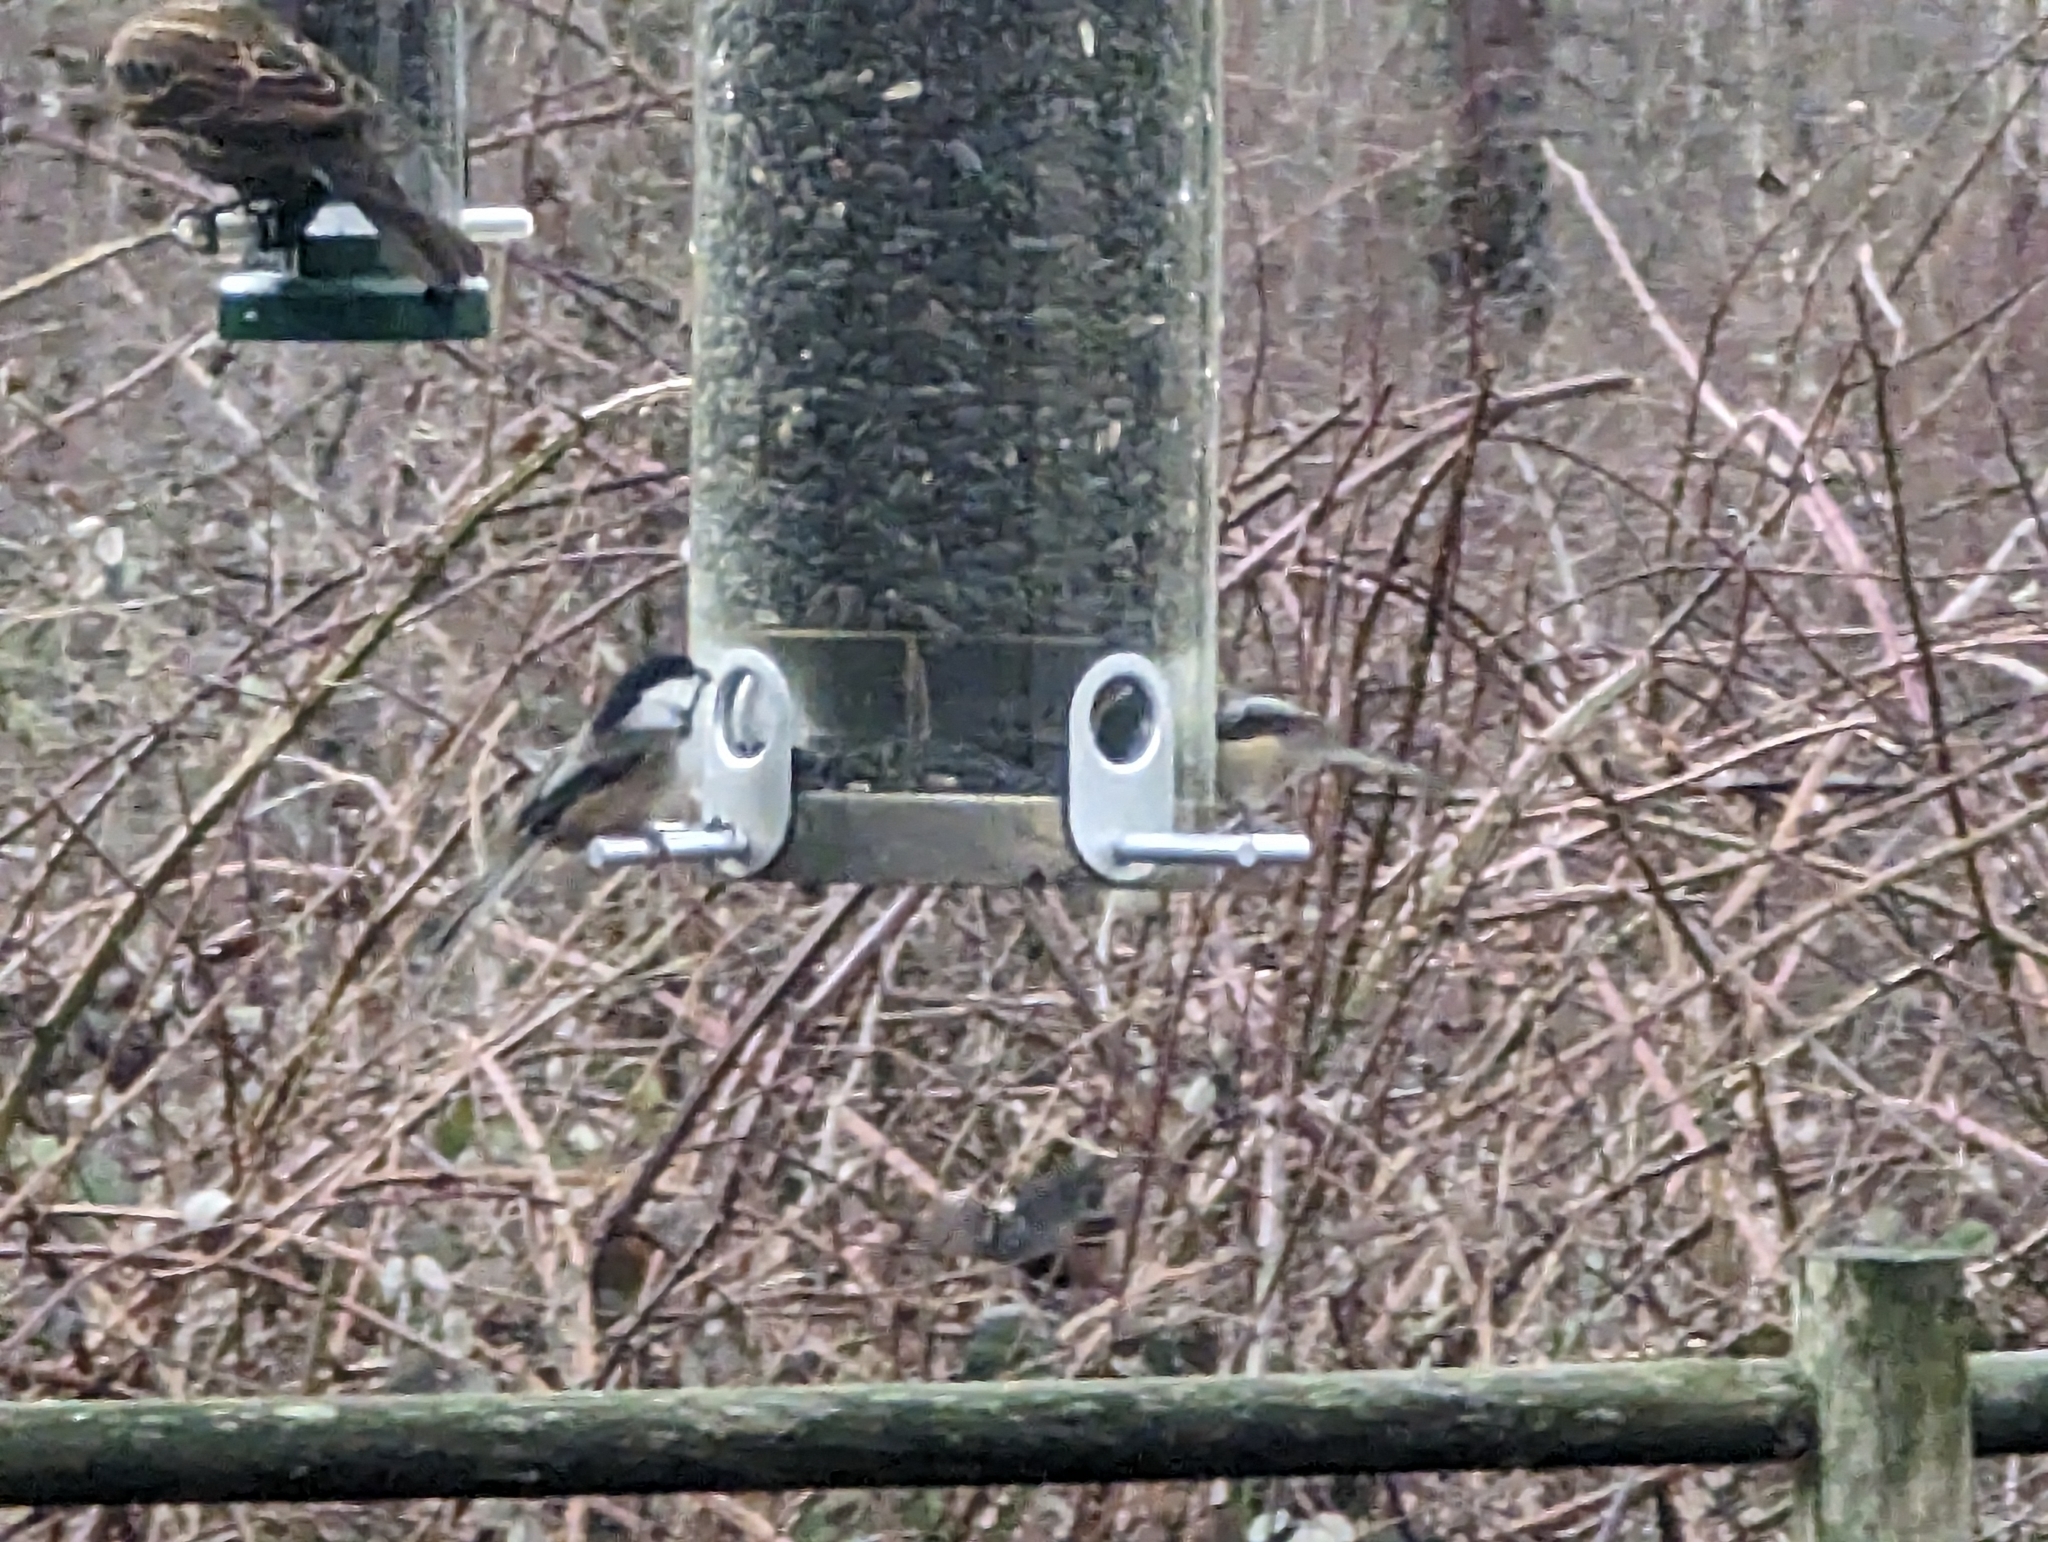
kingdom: Animalia
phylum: Chordata
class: Aves
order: Passeriformes
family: Paridae
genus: Poecile
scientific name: Poecile atricapillus
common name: Black-capped chickadee
